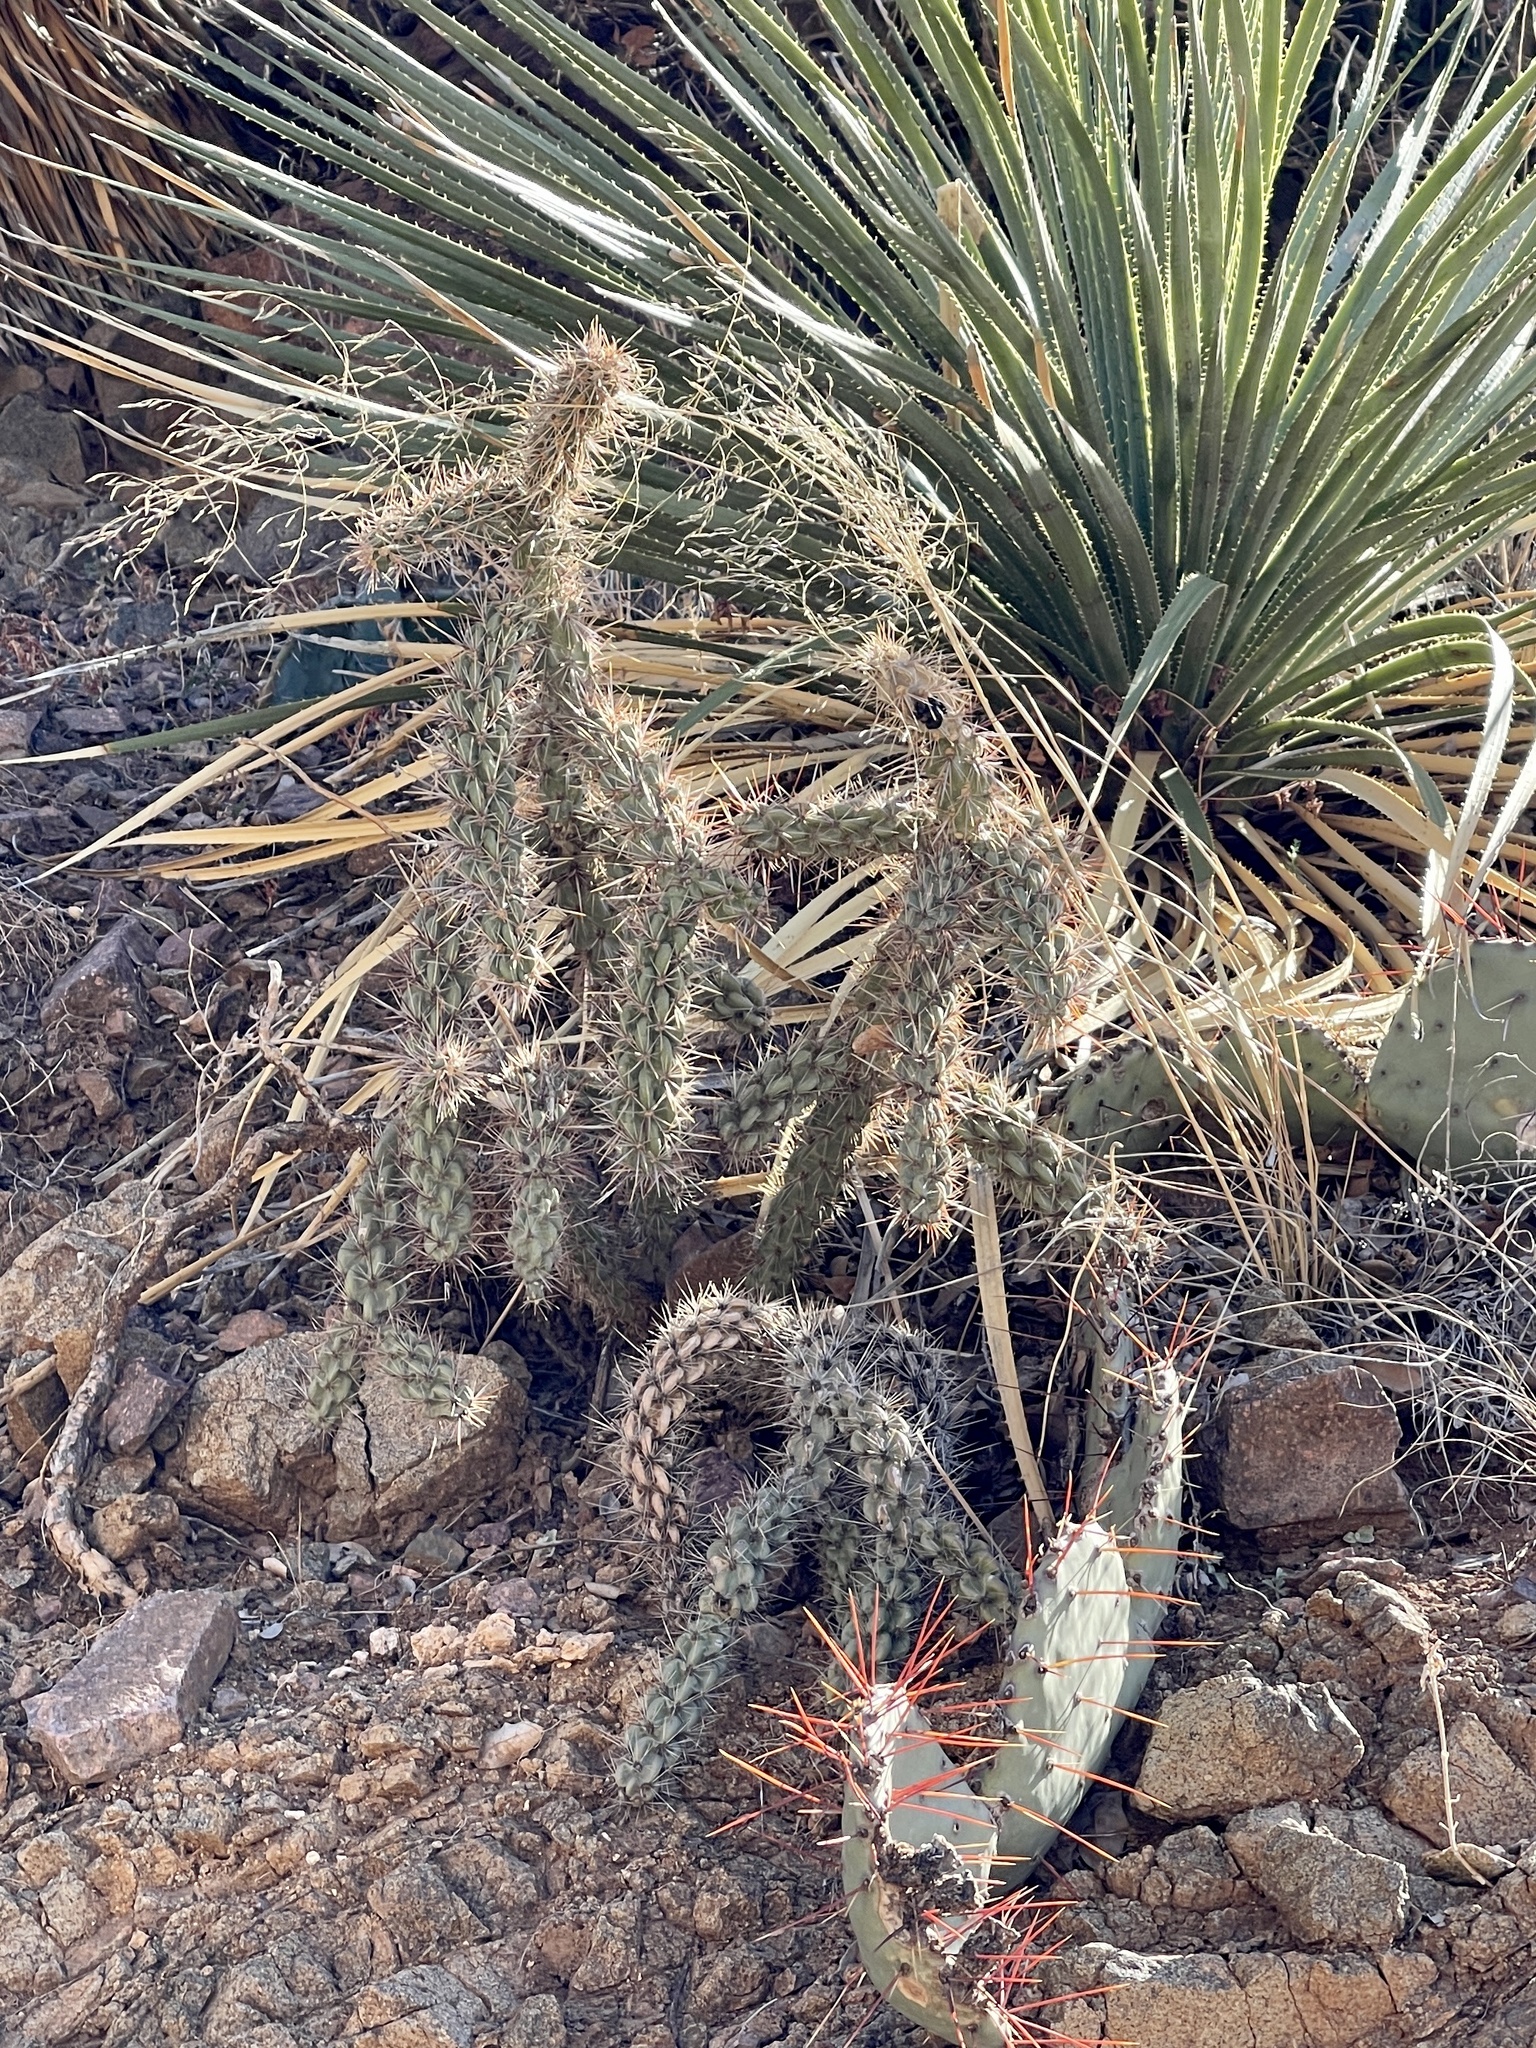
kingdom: Plantae
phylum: Tracheophyta
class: Magnoliopsida
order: Caryophyllales
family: Cactaceae
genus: Cylindropuntia
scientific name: Cylindropuntia imbricata
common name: Candelabrum cactus
